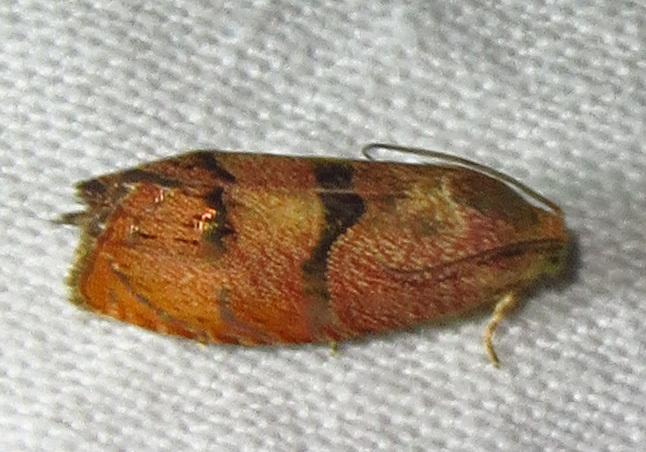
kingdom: Animalia
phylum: Arthropoda
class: Insecta
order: Lepidoptera
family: Tortricidae
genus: Cydia
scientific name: Cydia latiferreana
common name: Filbertworm moth
